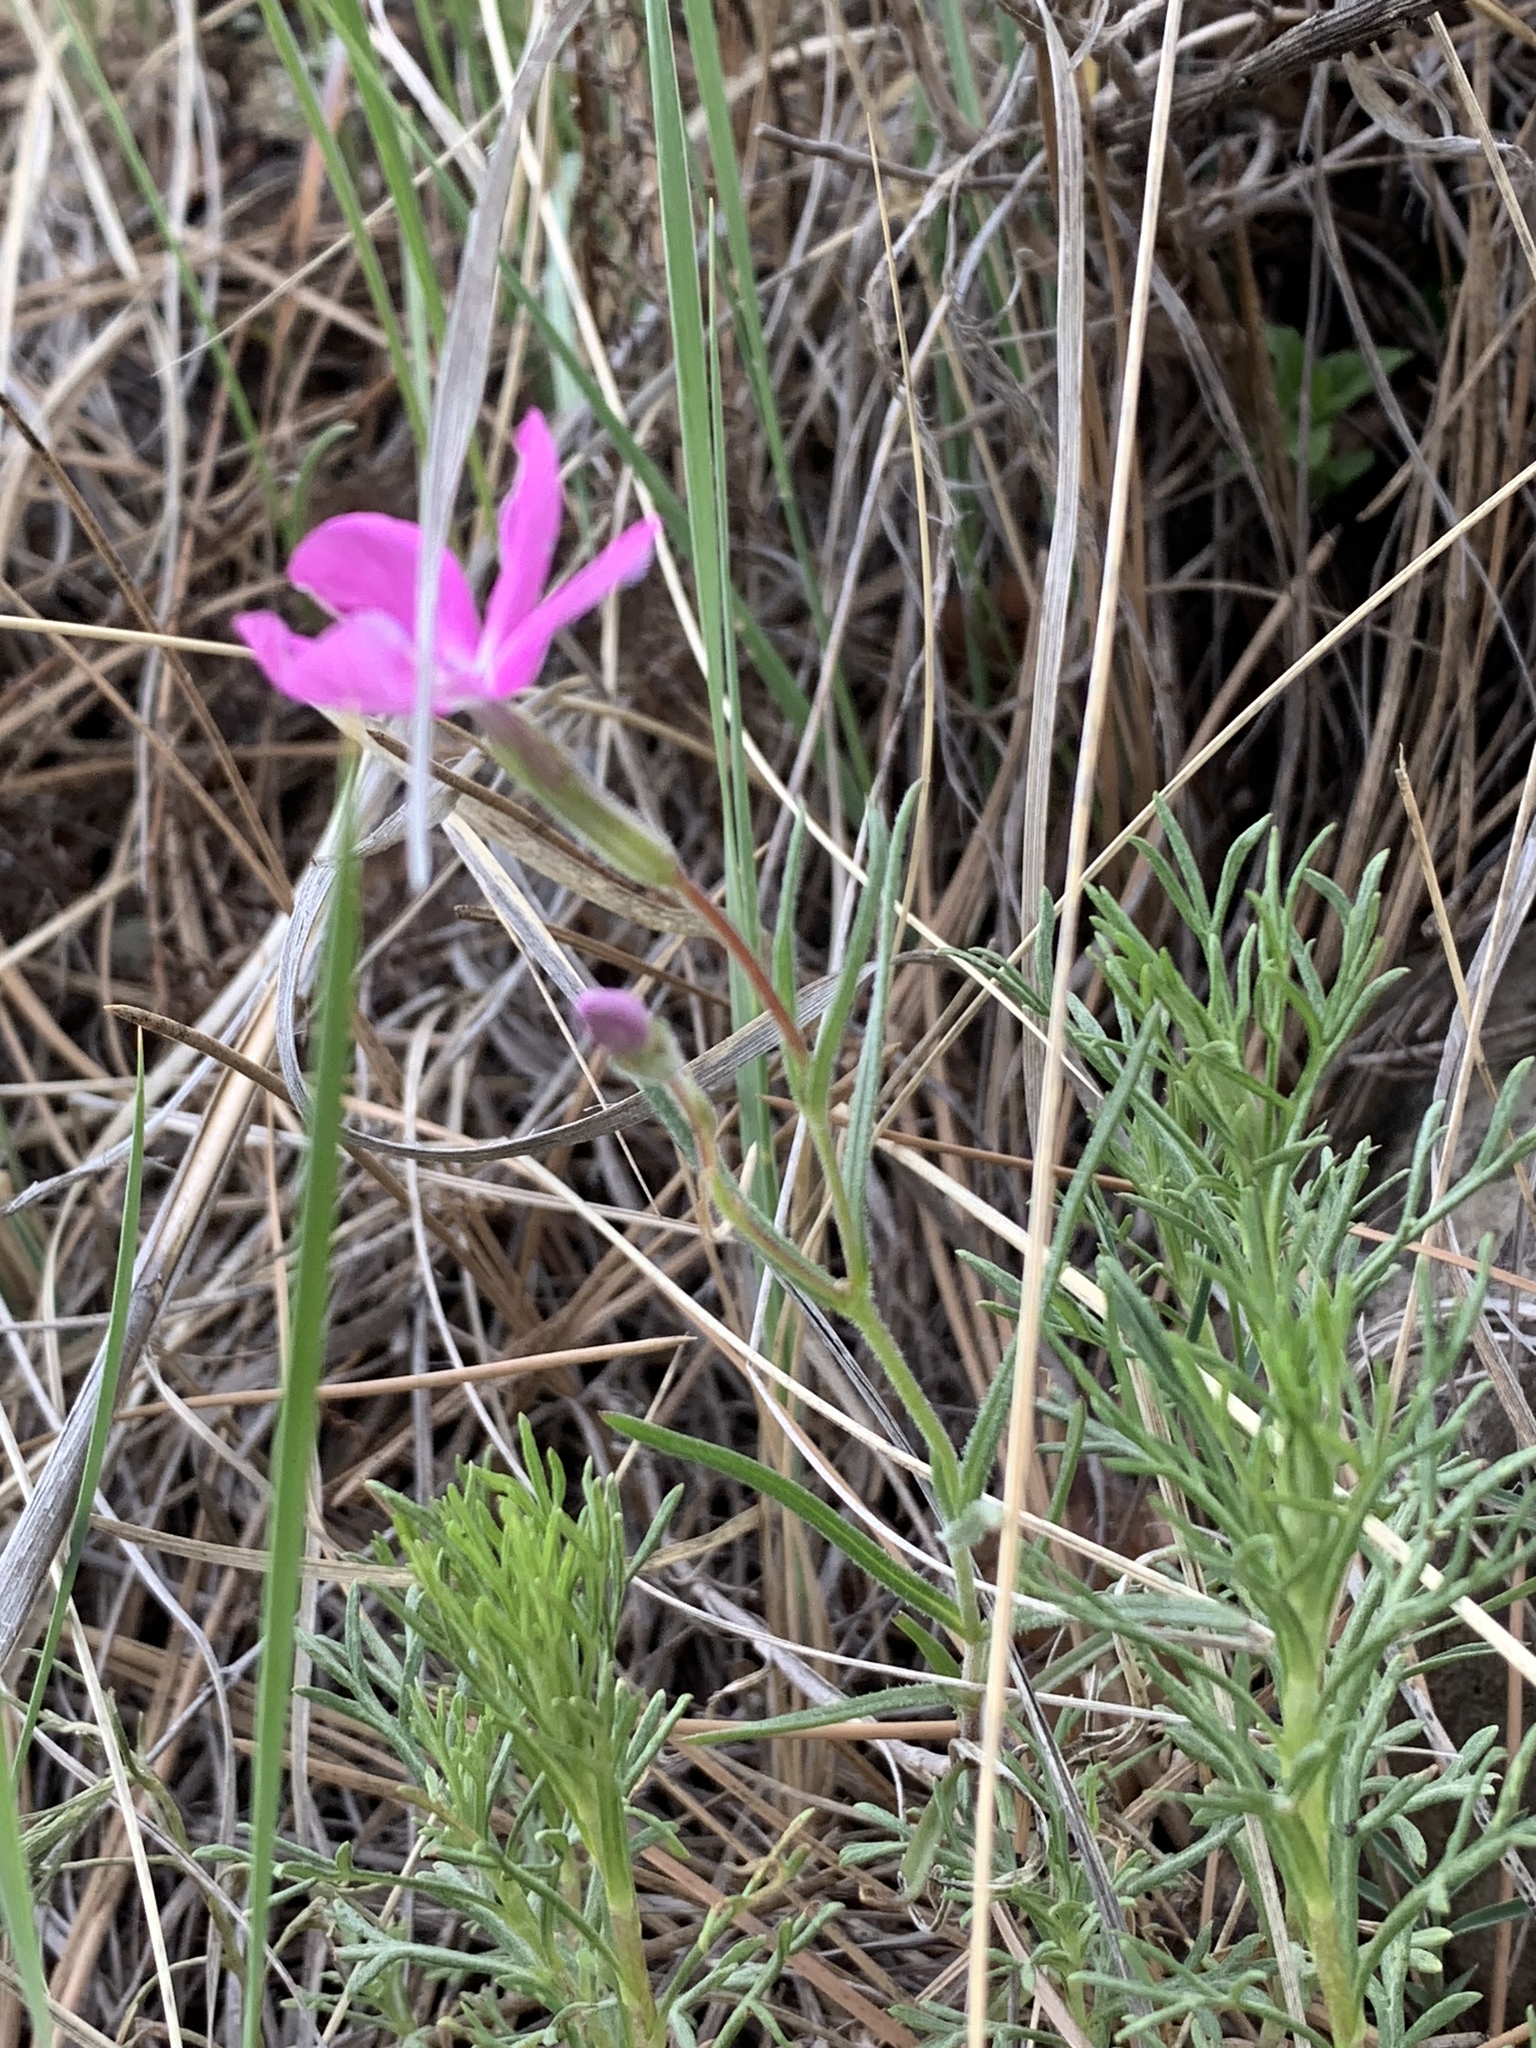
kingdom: Plantae
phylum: Tracheophyta
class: Magnoliopsida
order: Ericales
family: Polemoniaceae
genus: Phlox
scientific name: Phlox nana
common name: Santa fe phlox
